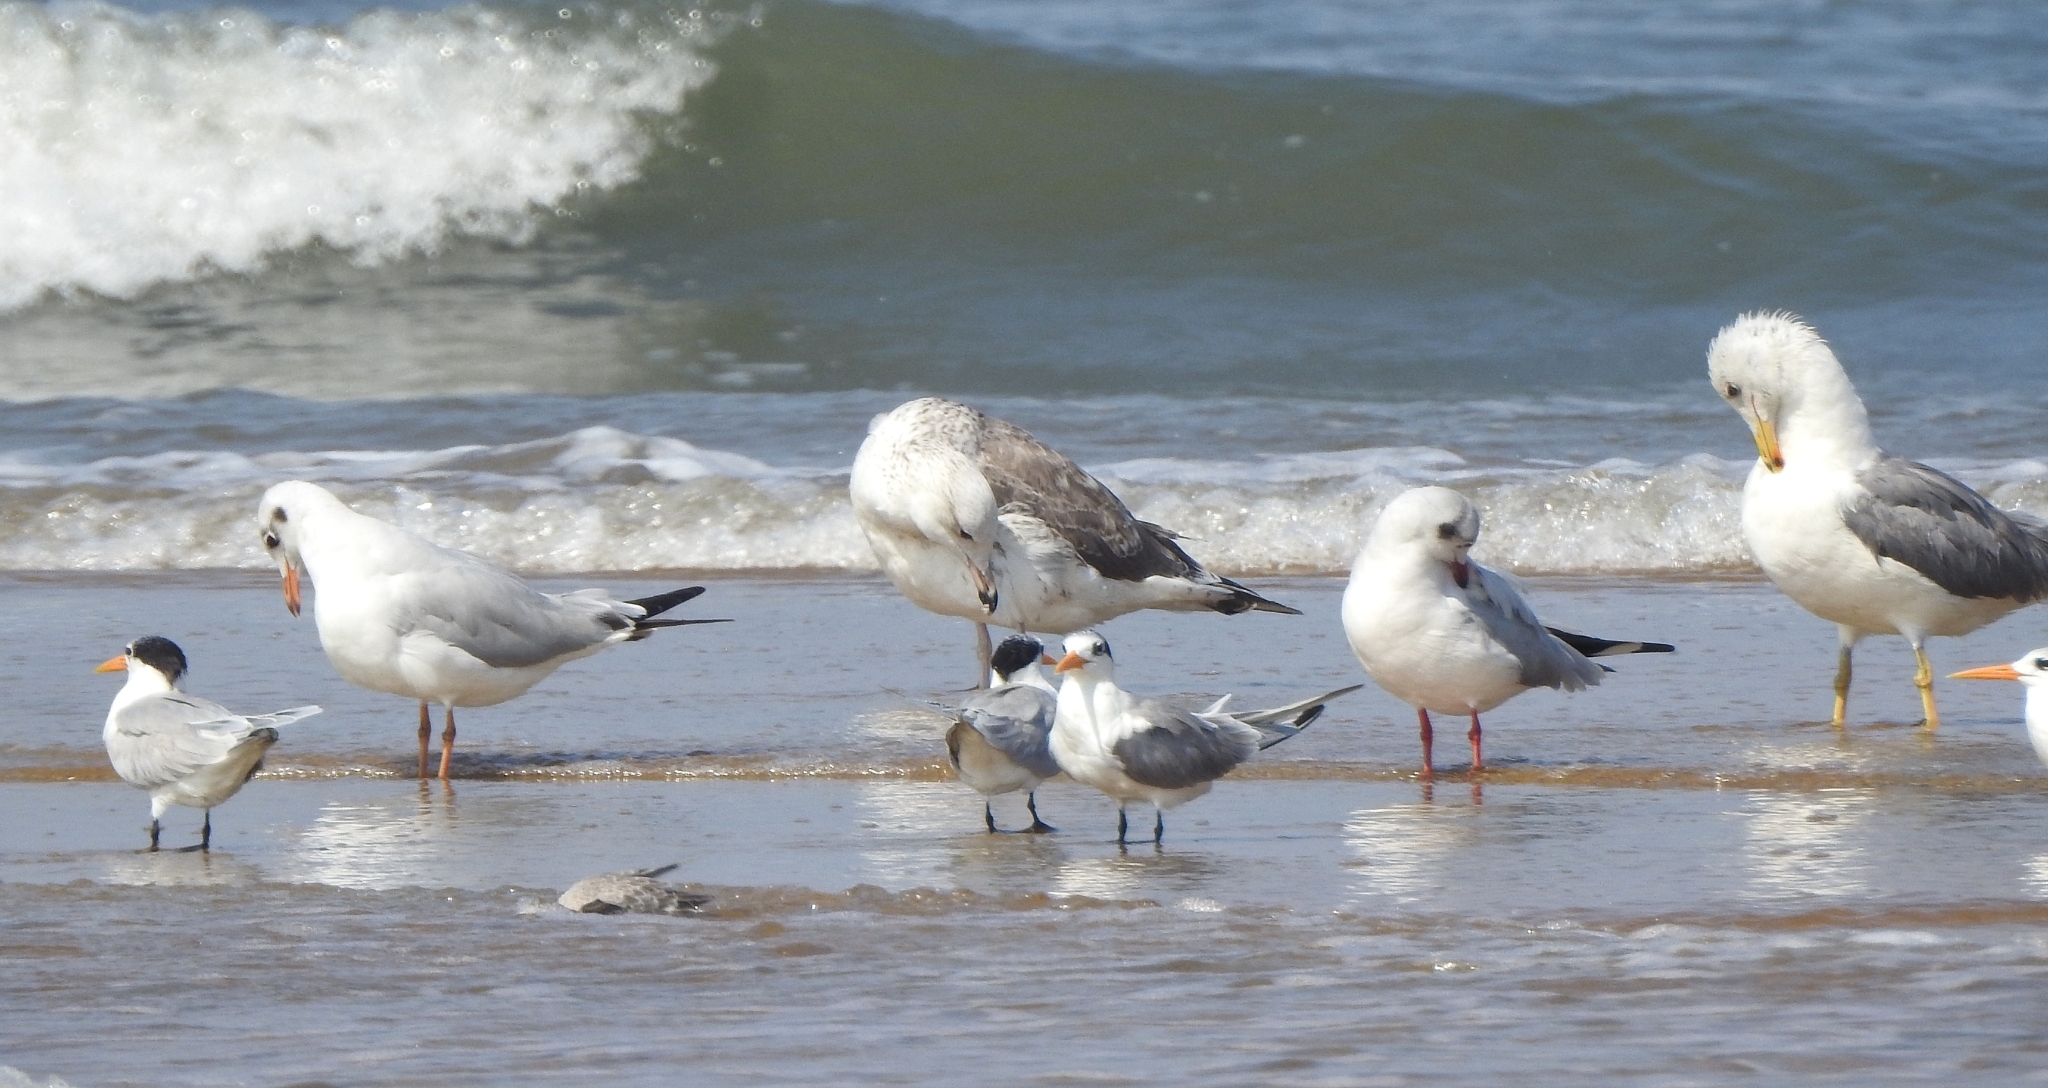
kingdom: Animalia
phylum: Chordata
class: Aves
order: Charadriiformes
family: Laridae
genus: Larus
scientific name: Larus fuscus
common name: Lesser black-backed gull
